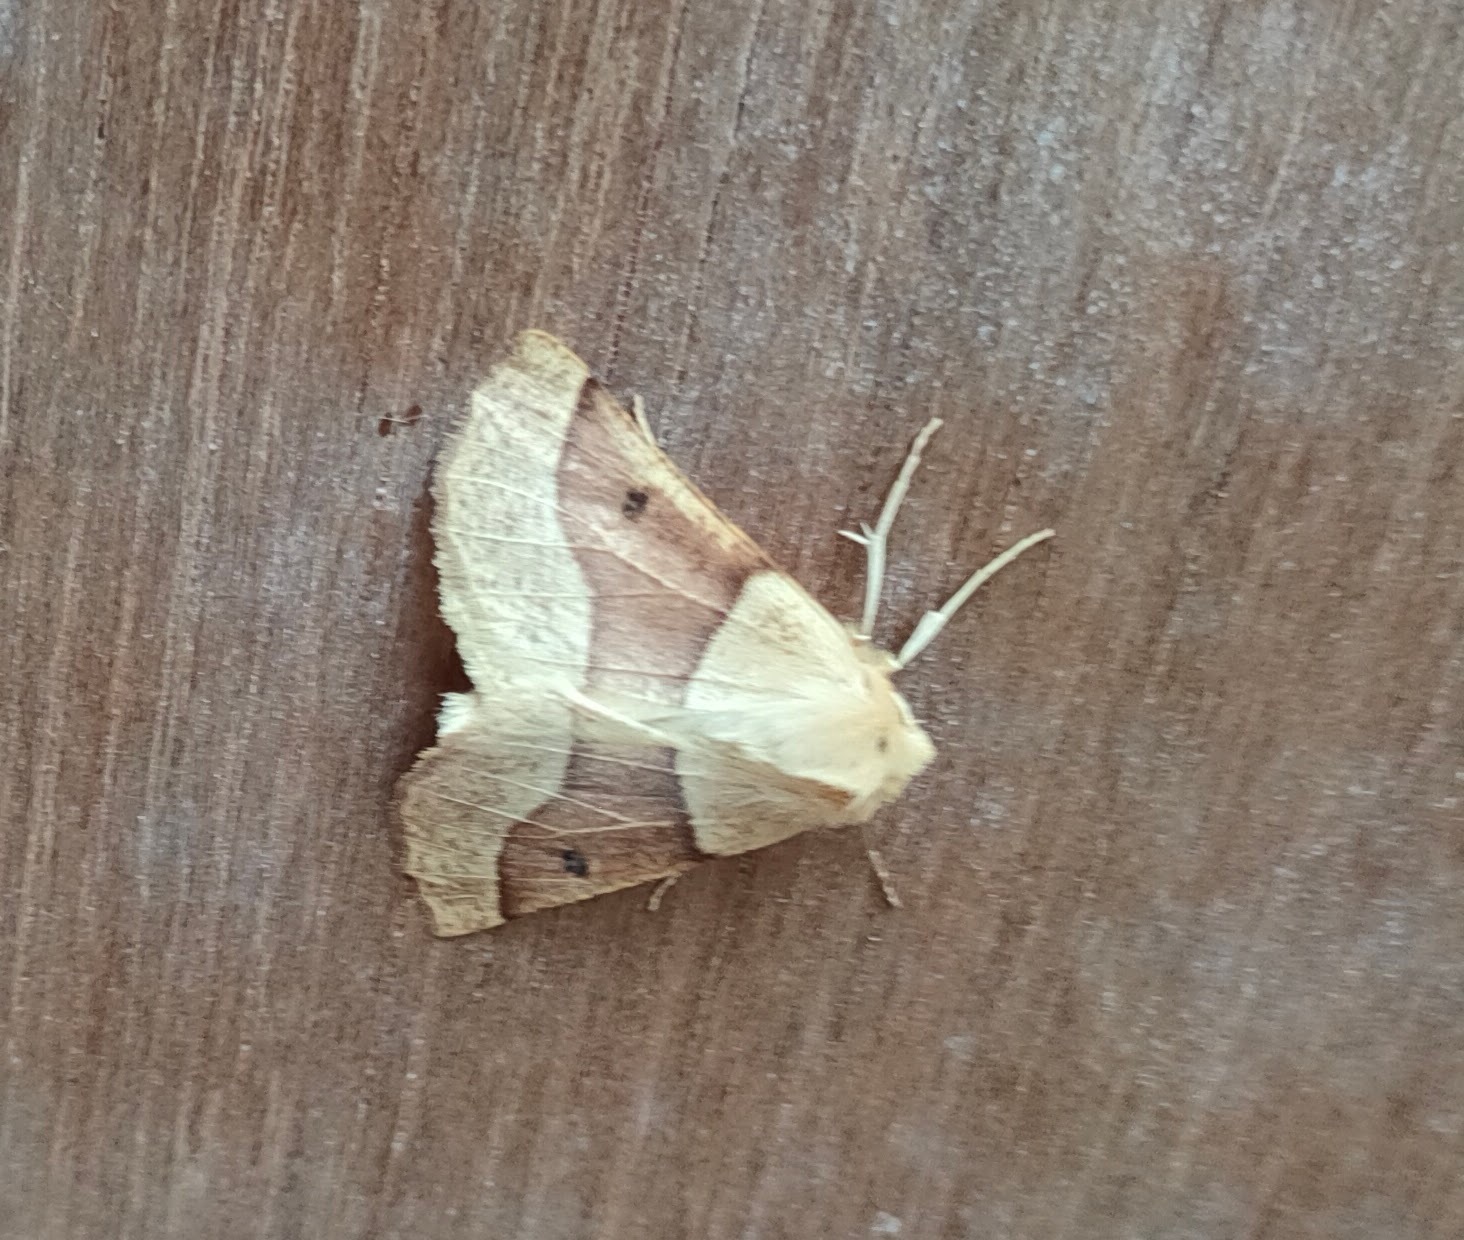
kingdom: Animalia
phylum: Arthropoda
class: Insecta
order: Lepidoptera
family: Geometridae
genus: Crocallis
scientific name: Crocallis elinguaria
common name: Scalloped oak
